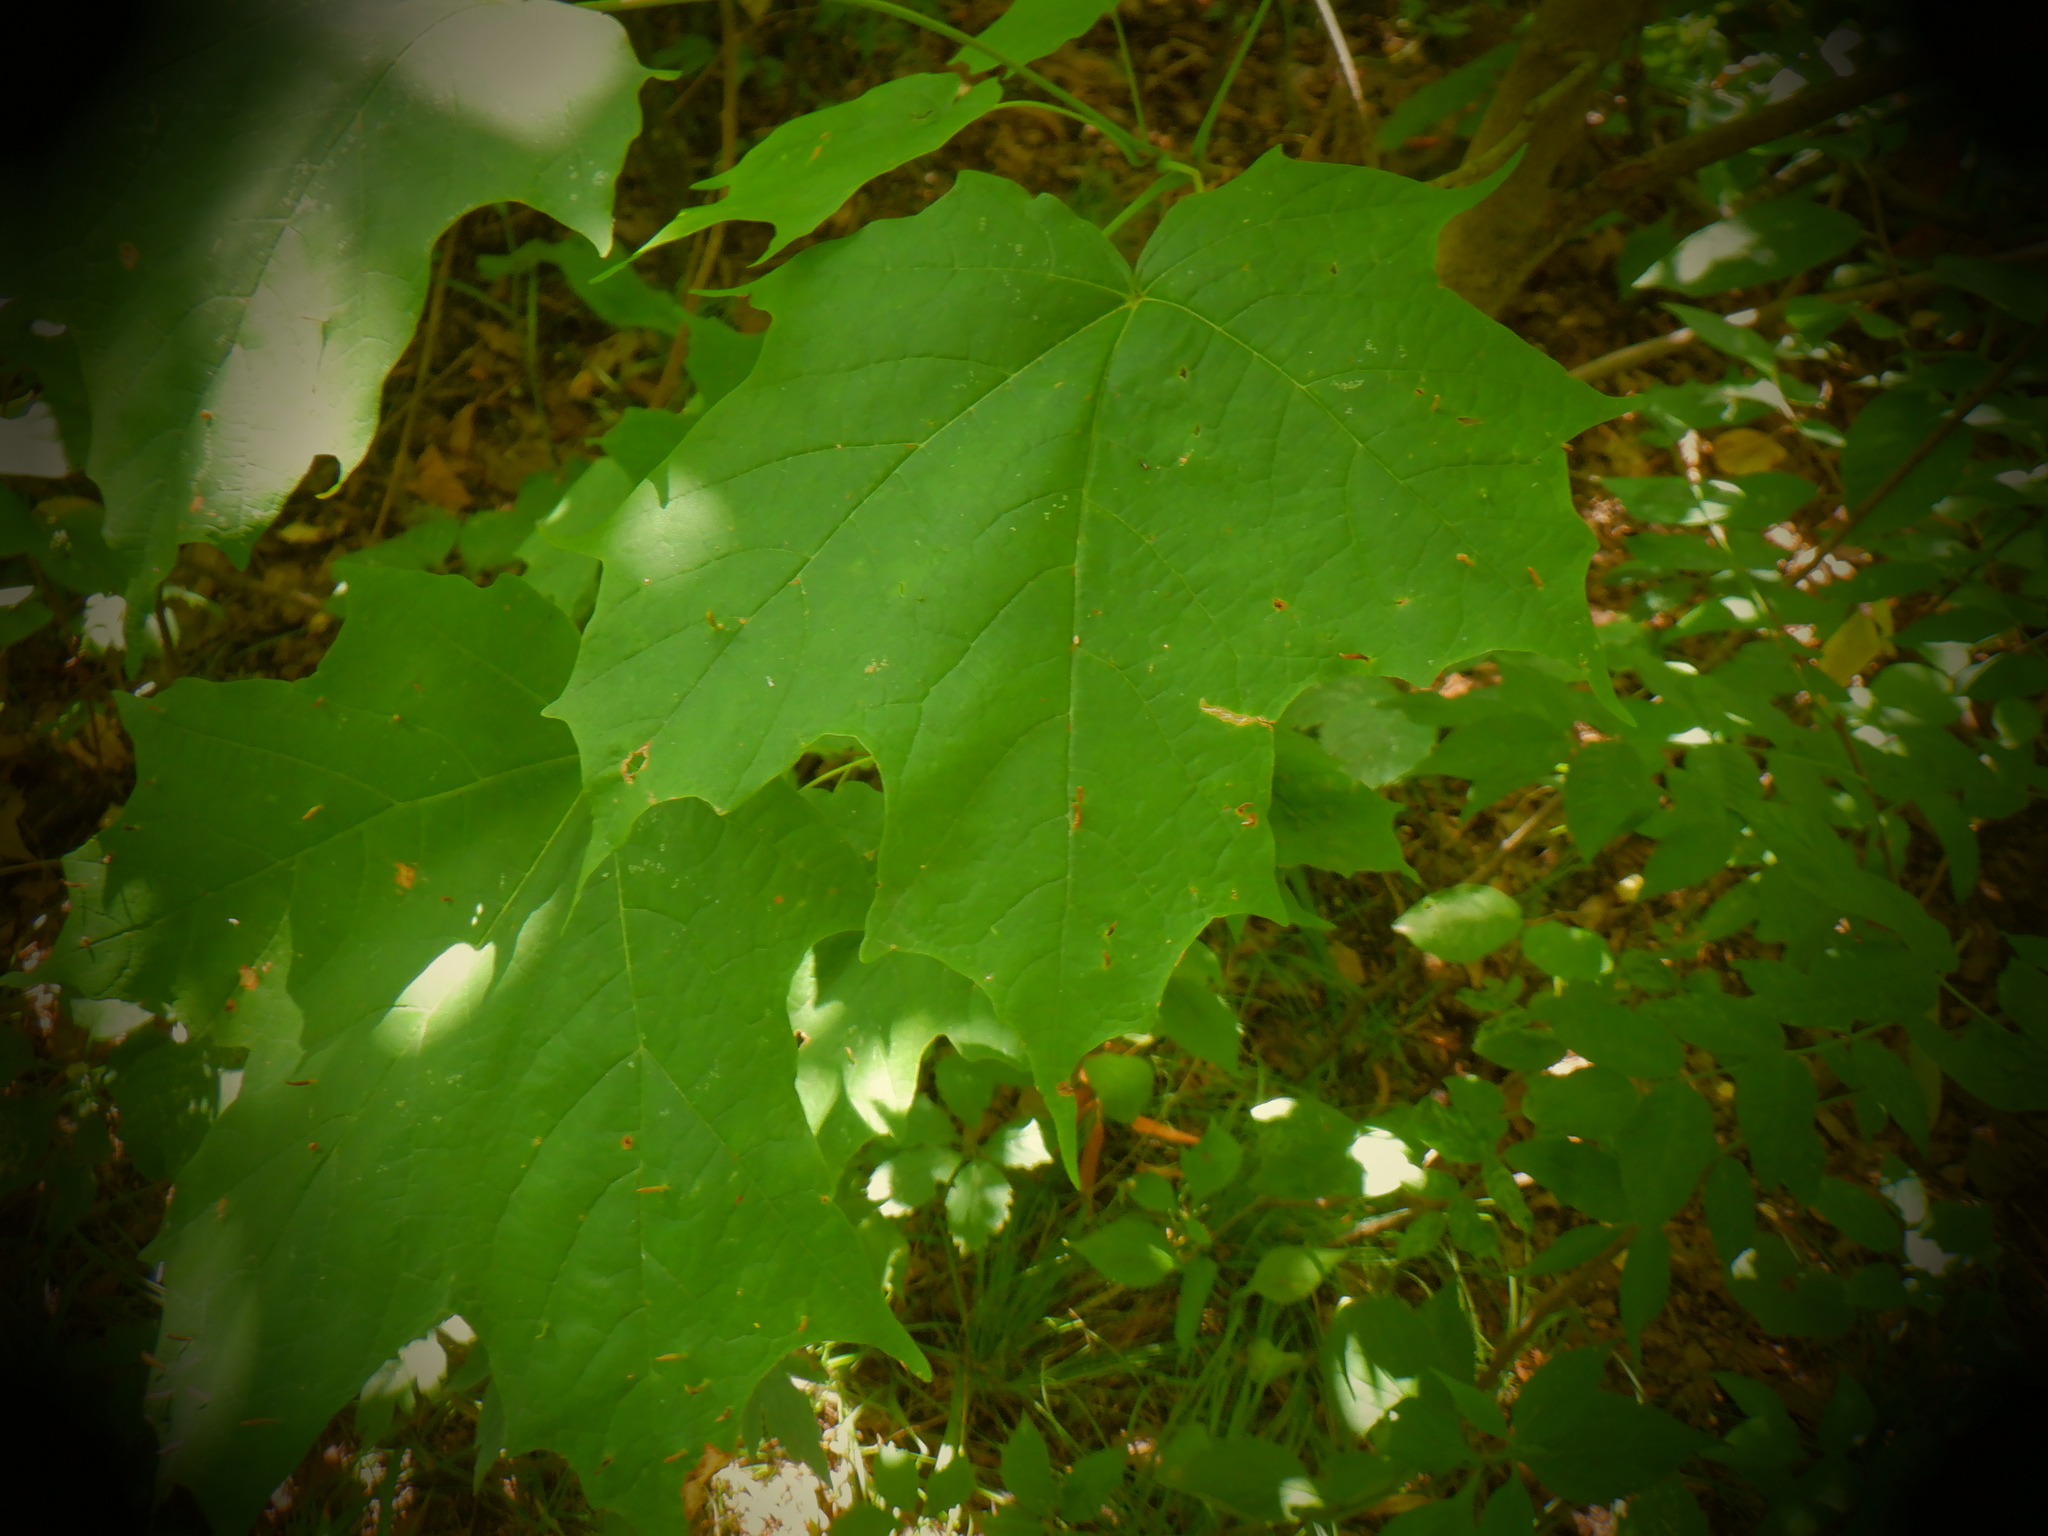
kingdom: Animalia
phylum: Arthropoda
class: Arachnida
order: Trombidiformes
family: Eriophyidae
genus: Vasates
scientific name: Vasates aceriscrumena
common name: Maple spindle gall mite
